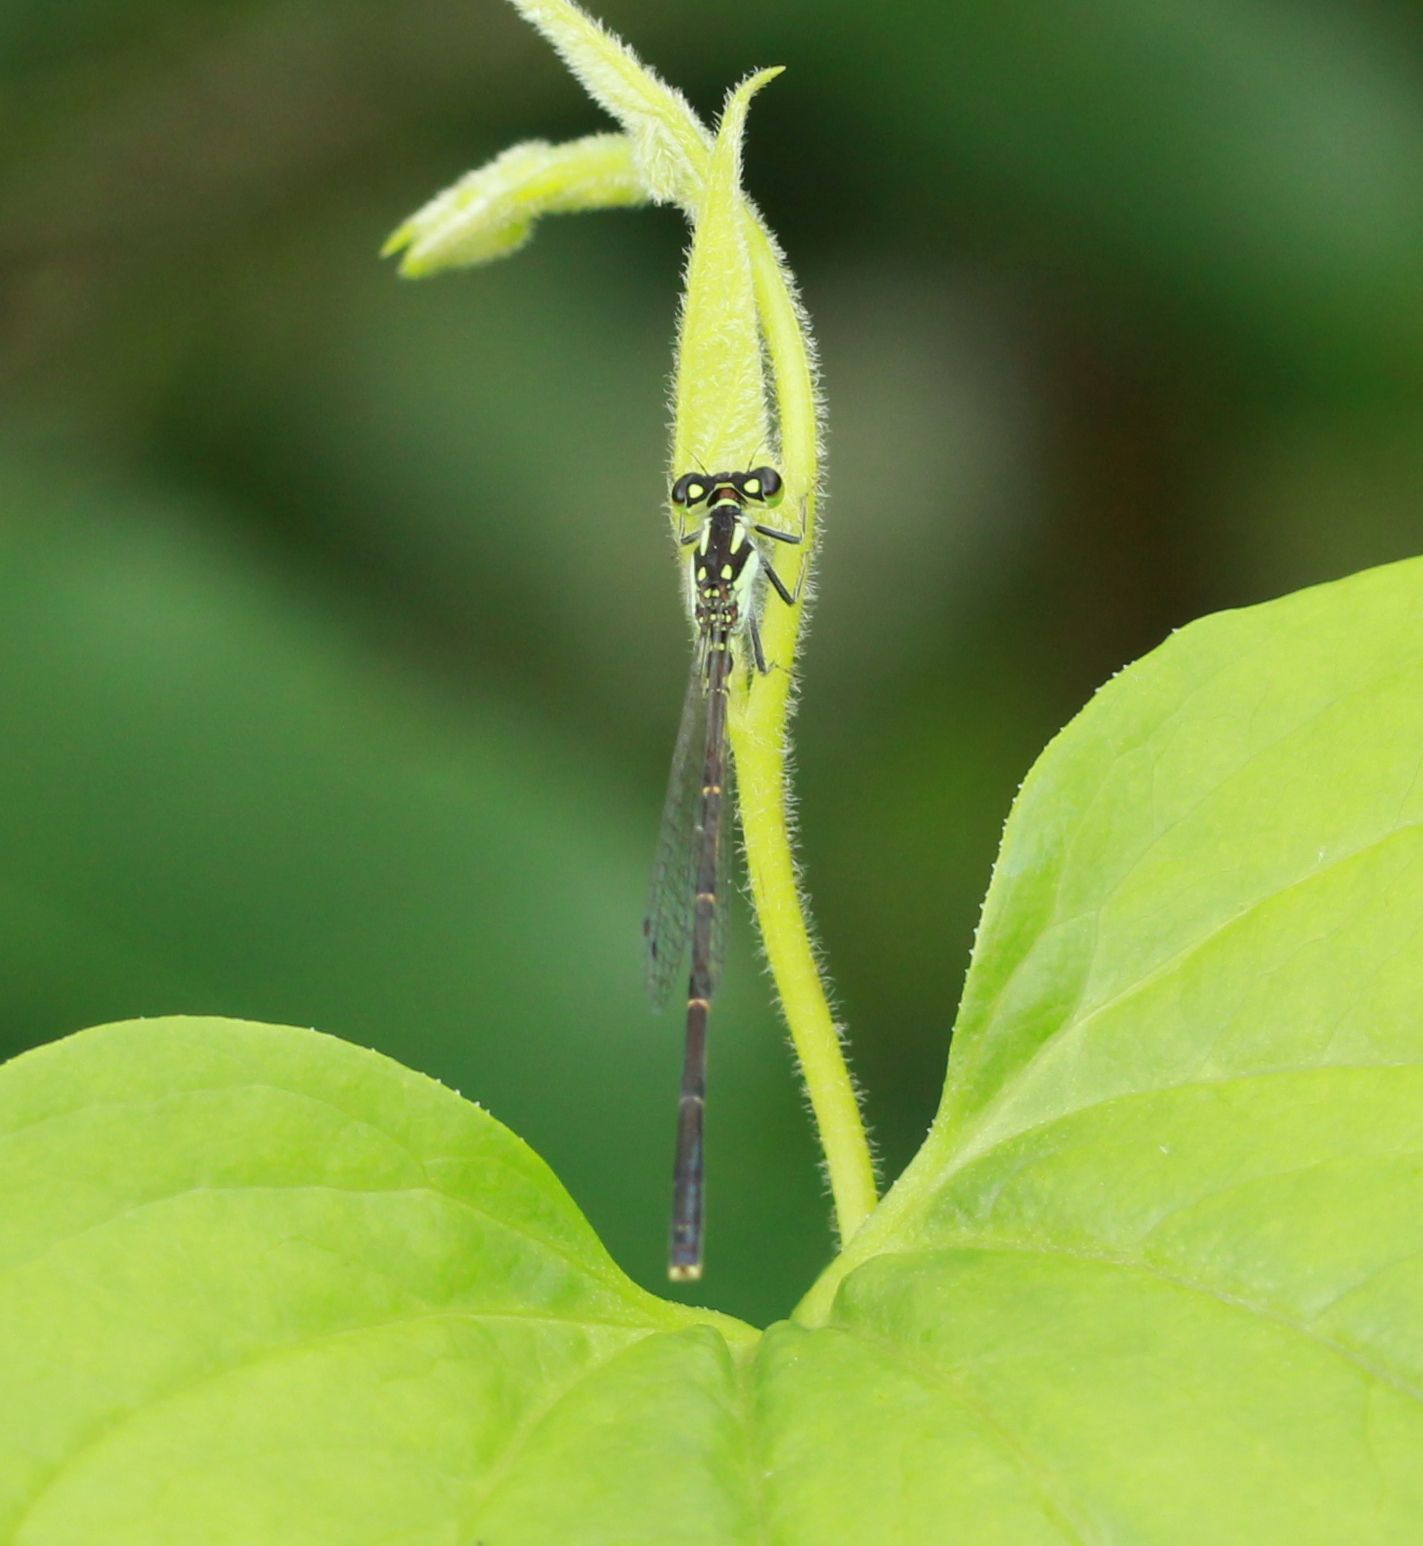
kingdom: Animalia
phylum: Arthropoda
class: Insecta
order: Odonata
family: Coenagrionidae
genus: Ischnura
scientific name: Ischnura posita
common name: Fragile forktail
